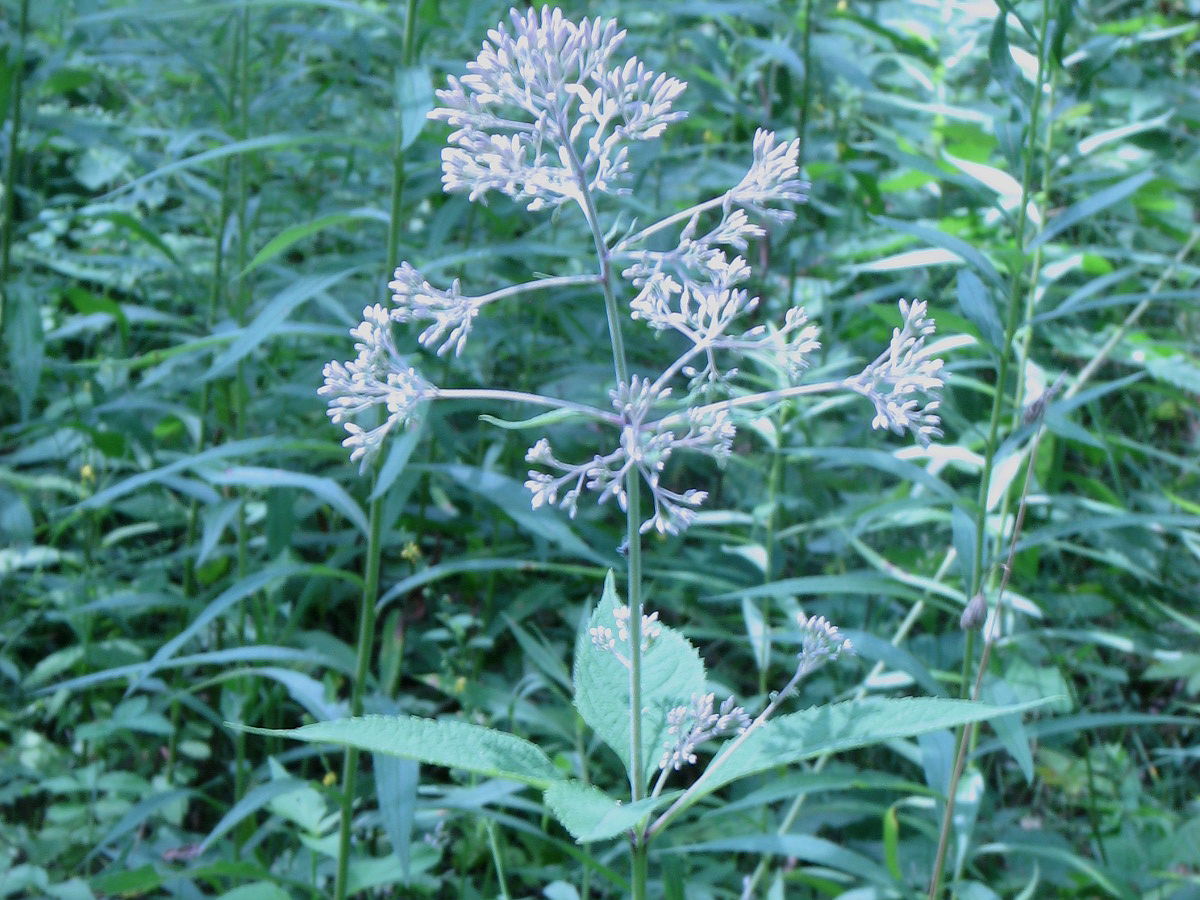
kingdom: Plantae
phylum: Tracheophyta
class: Magnoliopsida
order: Asterales
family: Asteraceae
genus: Eutrochium
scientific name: Eutrochium purpureum
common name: Gravelroot
